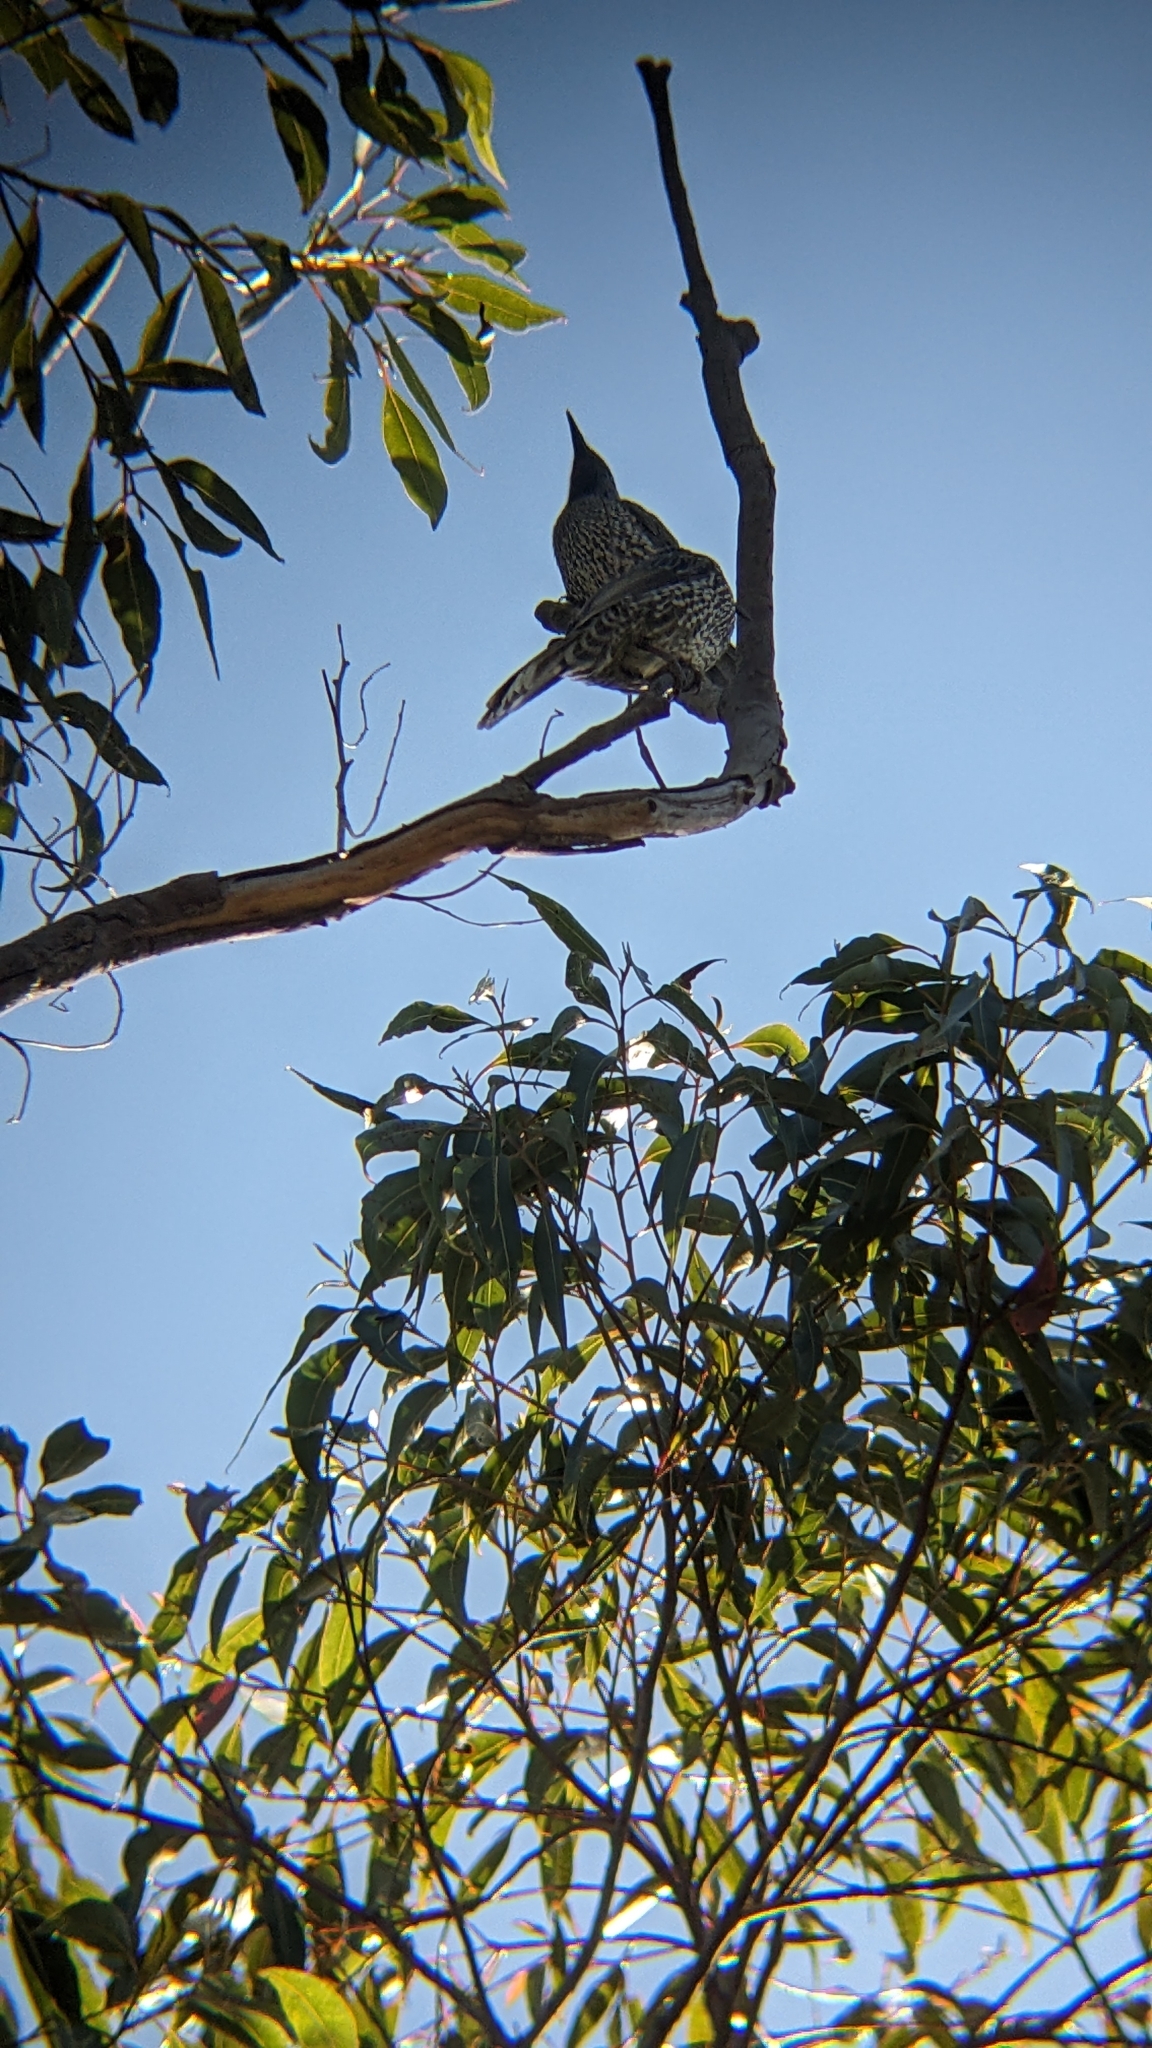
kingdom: Animalia
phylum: Chordata
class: Aves
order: Passeriformes
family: Meliphagidae
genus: Anthochaera
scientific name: Anthochaera chrysoptera
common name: Little wattlebird
